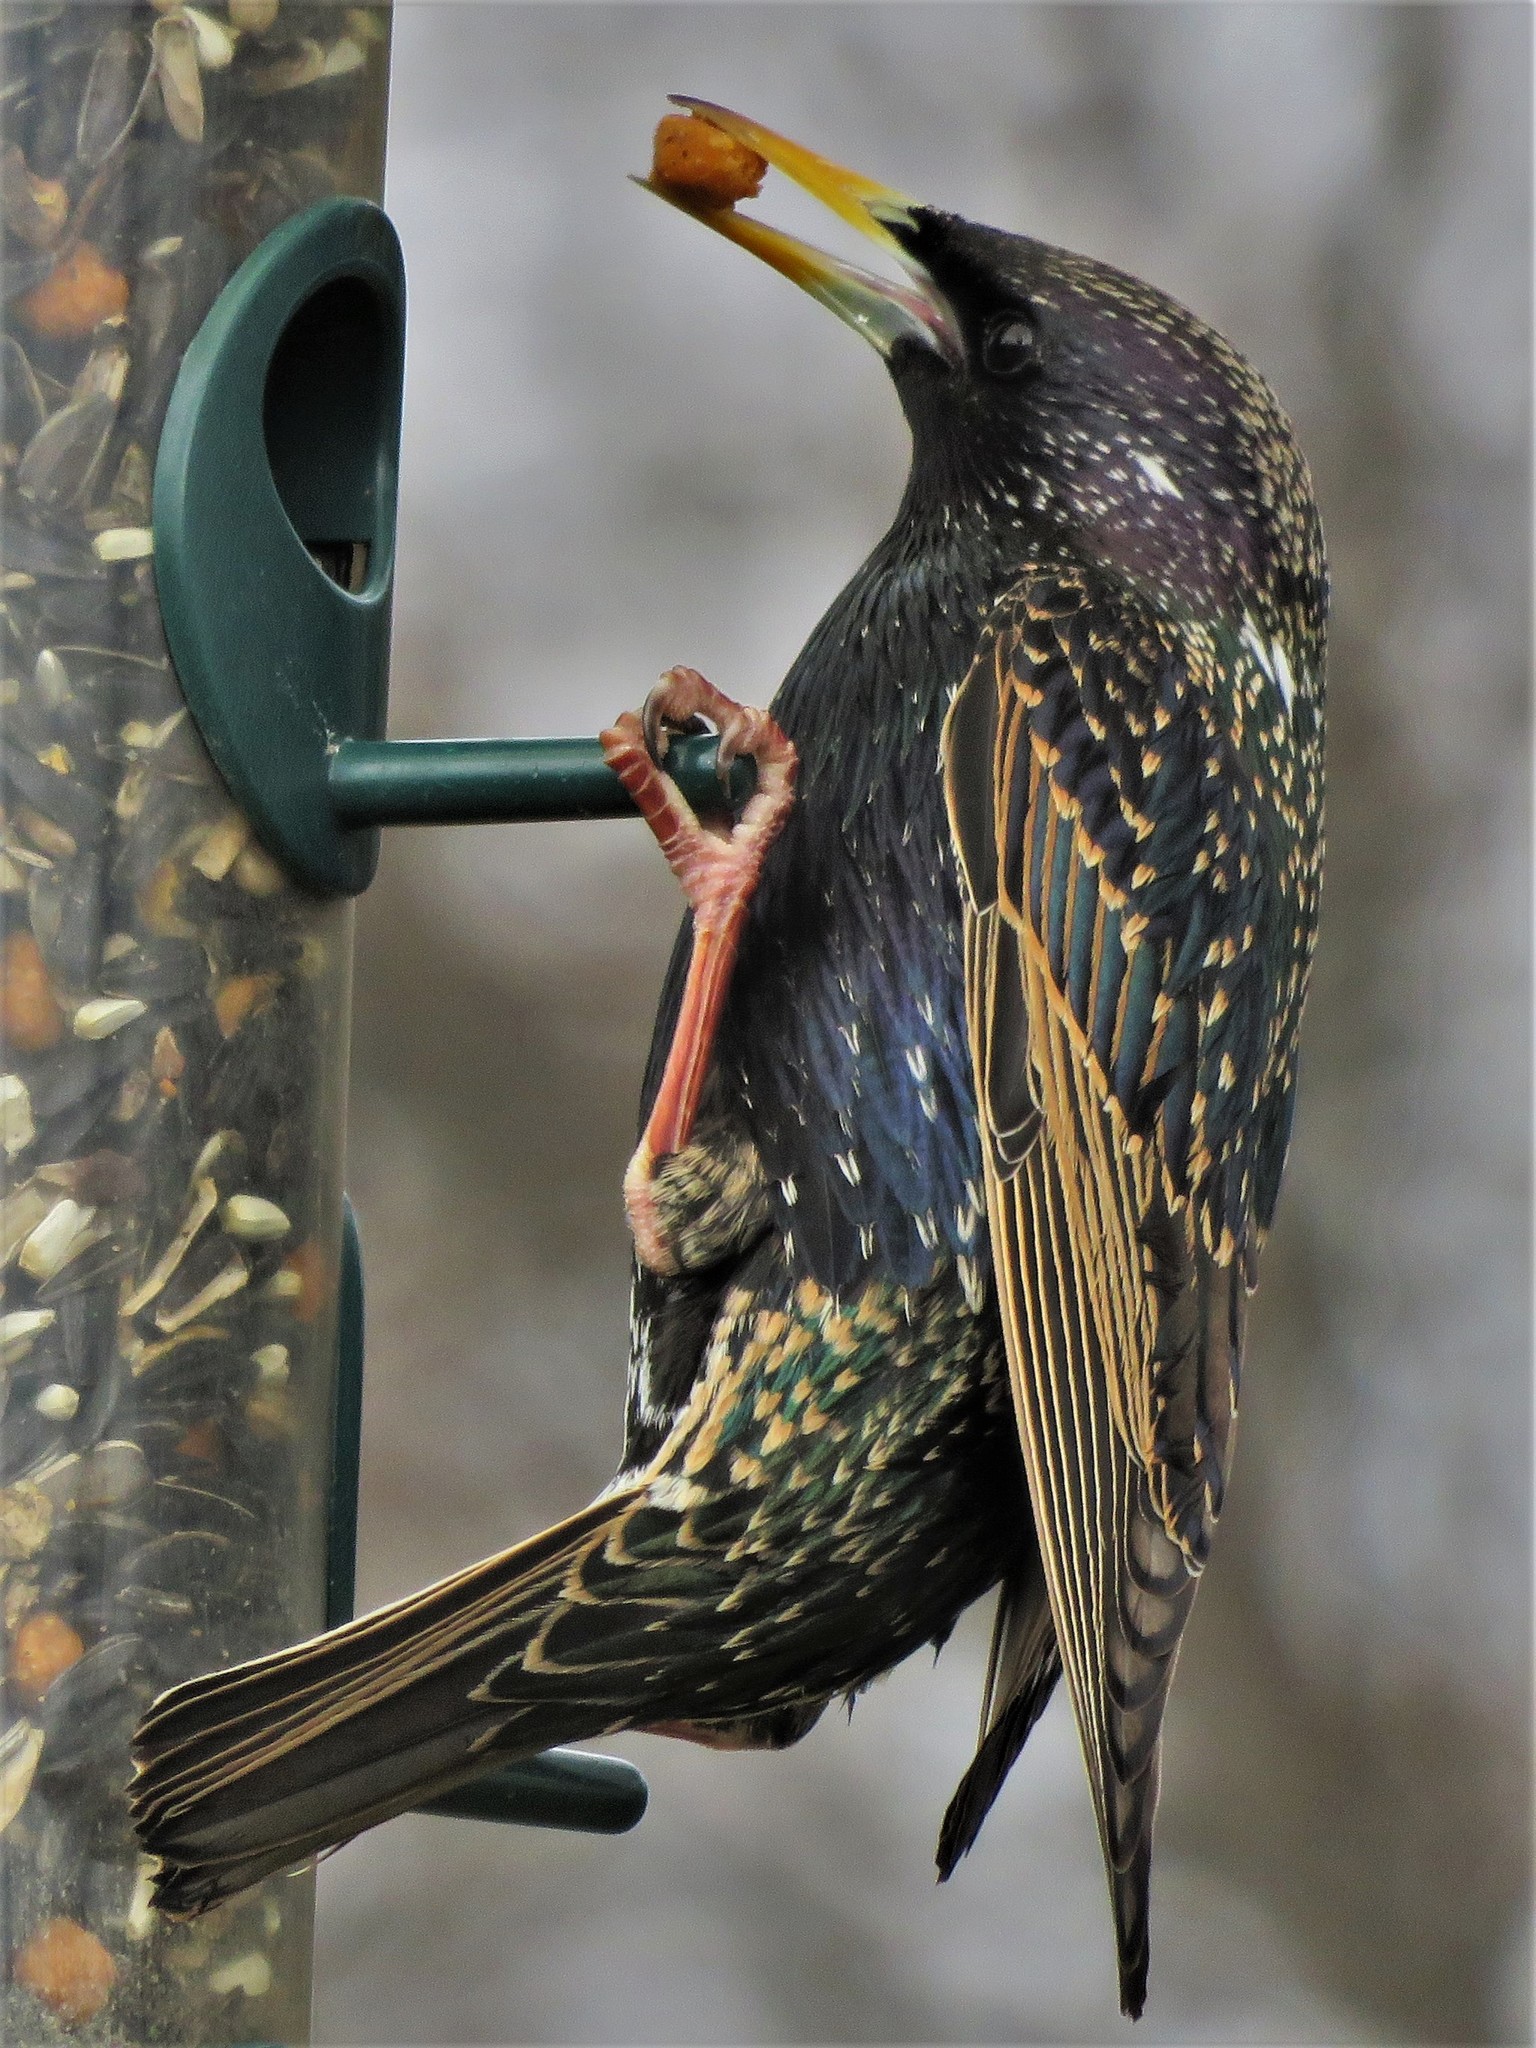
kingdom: Animalia
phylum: Chordata
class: Aves
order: Passeriformes
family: Sturnidae
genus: Sturnus
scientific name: Sturnus vulgaris
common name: Common starling
